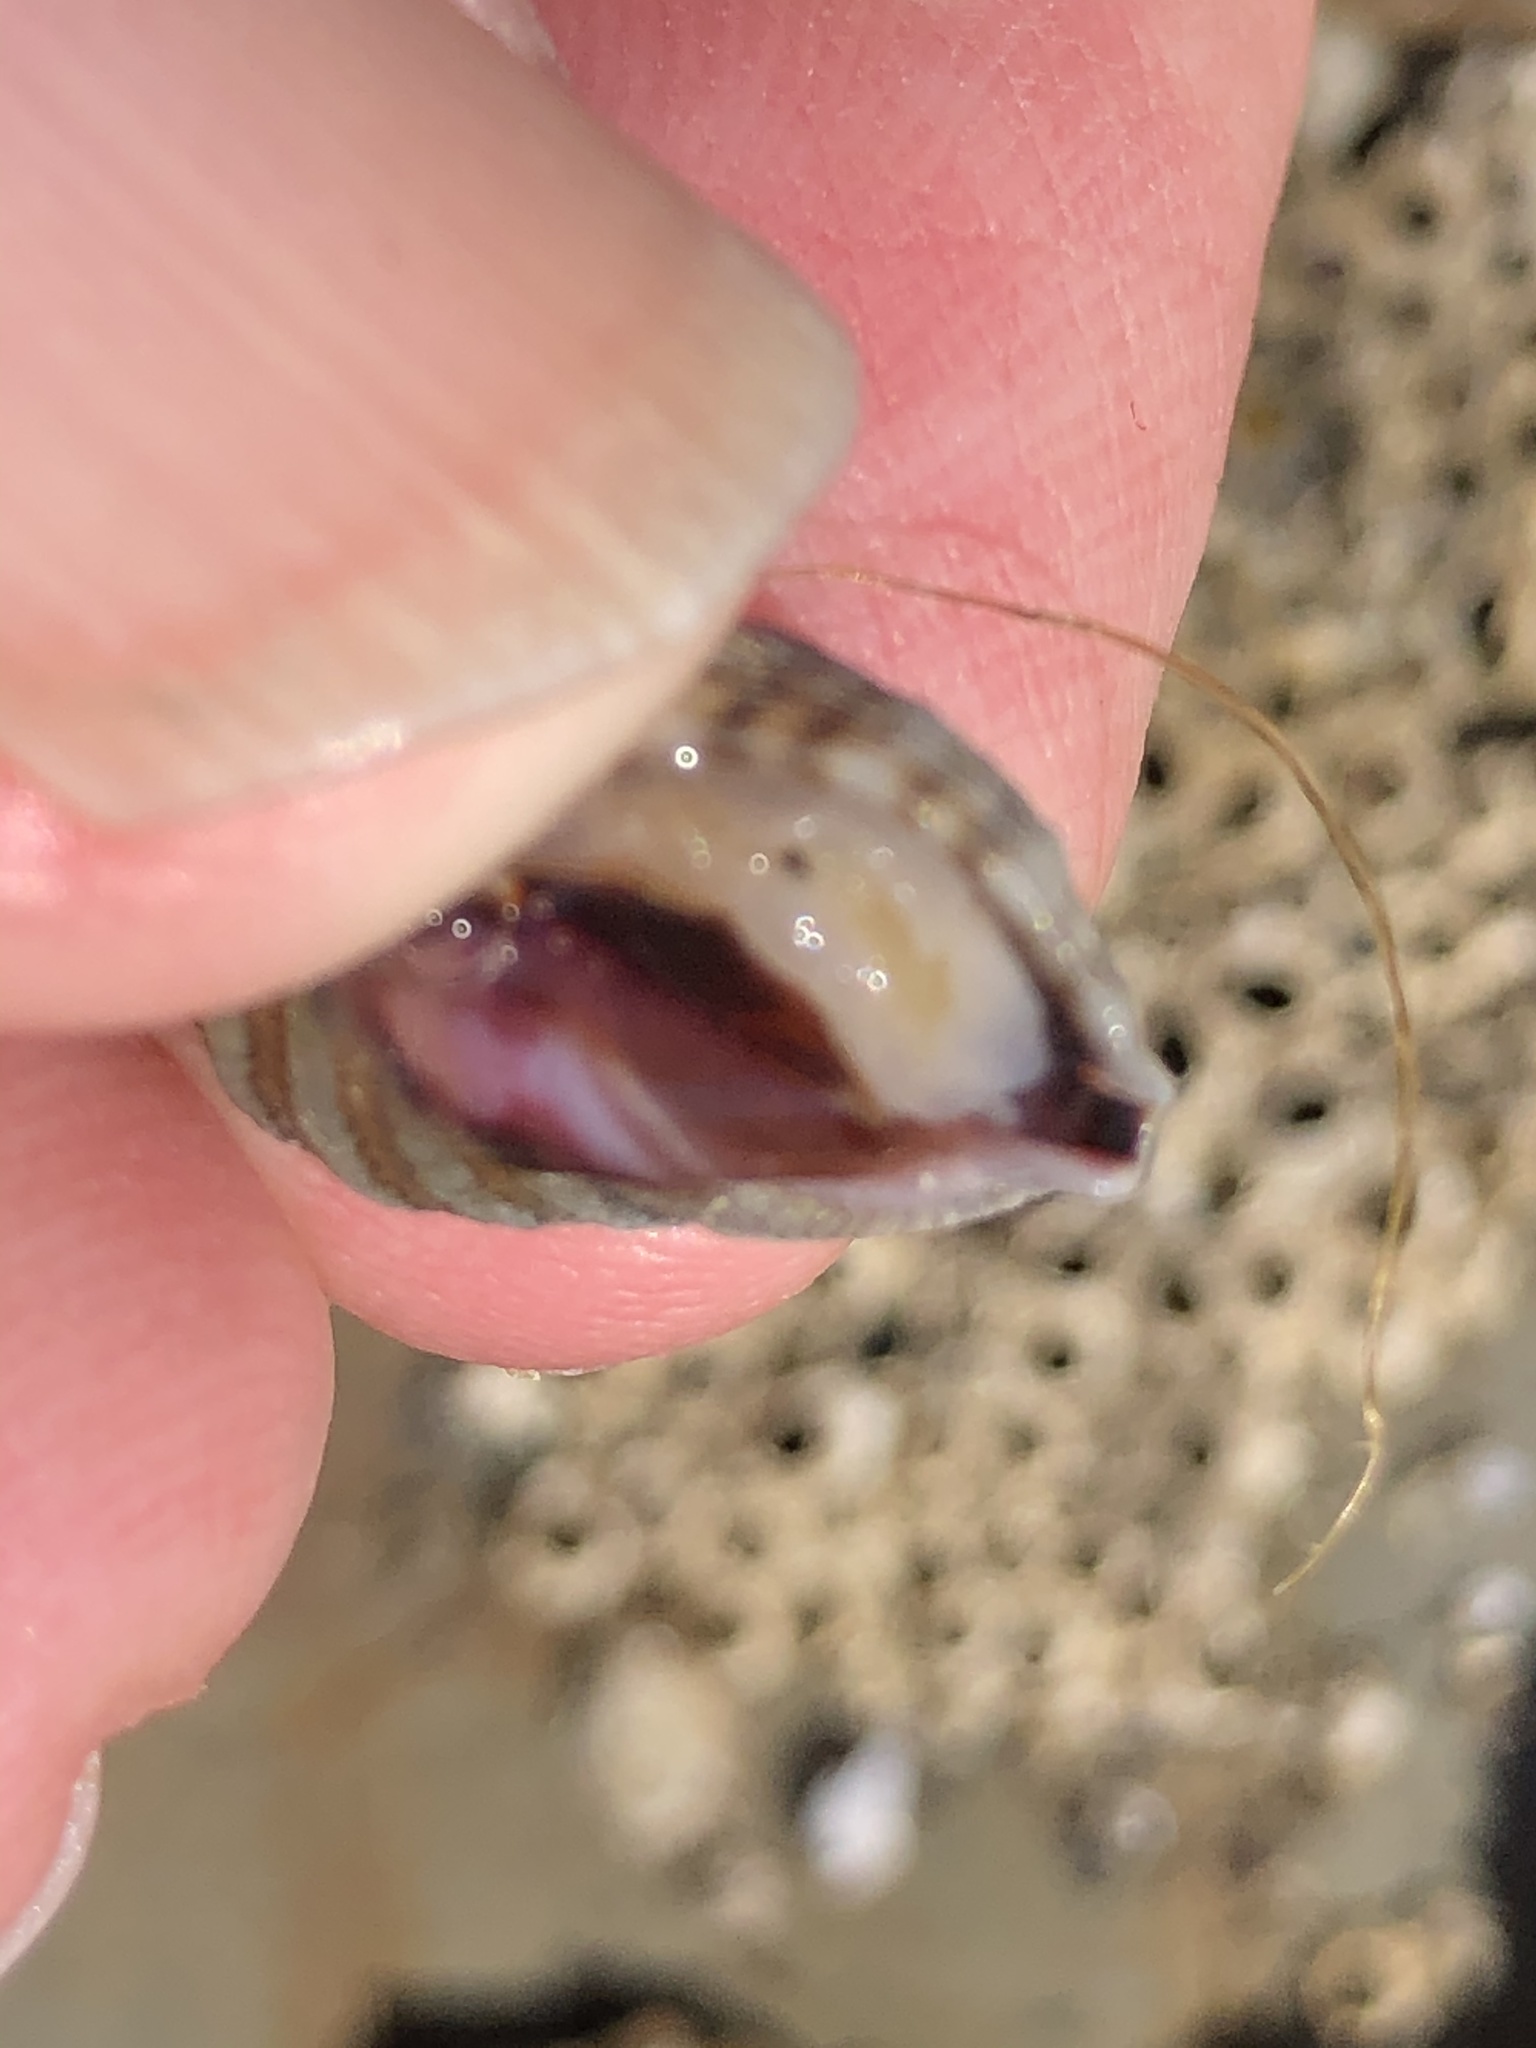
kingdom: Animalia
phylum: Mollusca
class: Gastropoda
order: Neogastropoda
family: Muricidae
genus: Nucella
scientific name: Nucella ostrina
